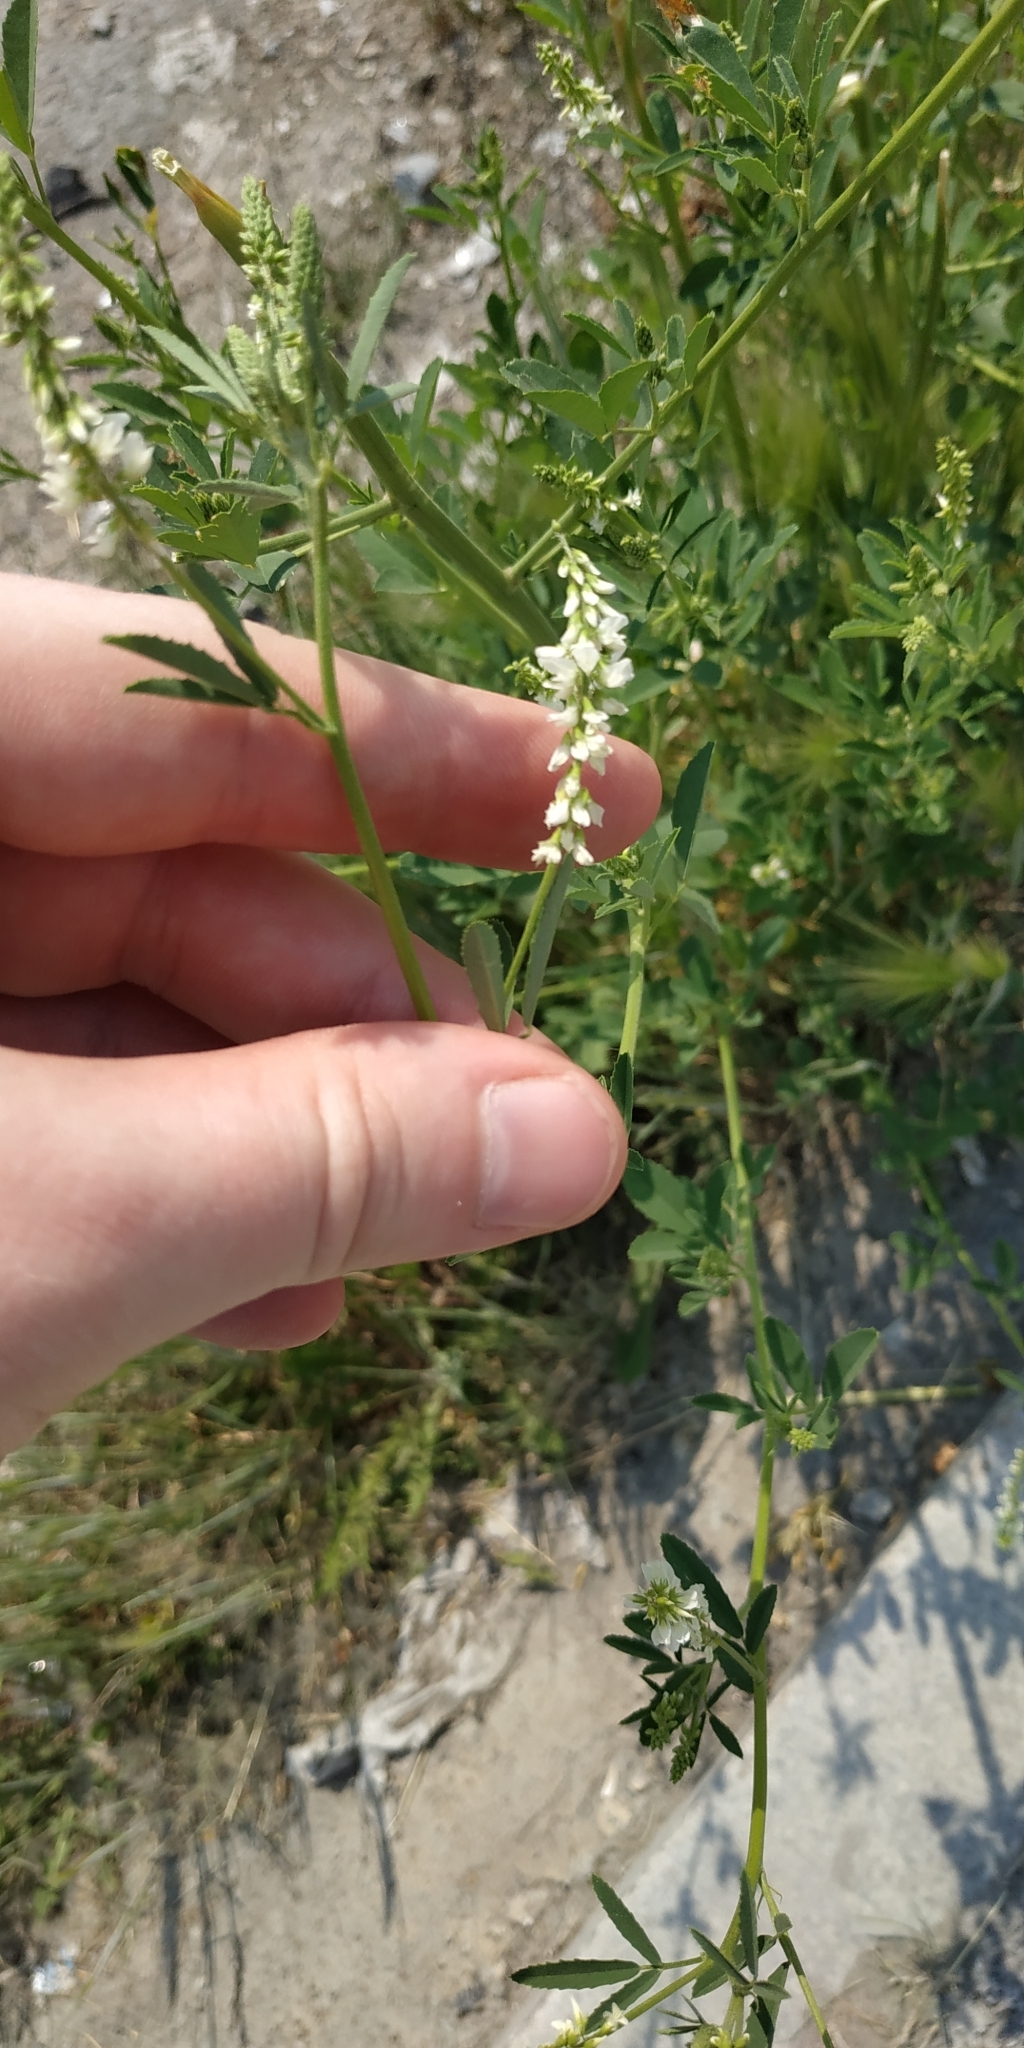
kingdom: Plantae
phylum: Tracheophyta
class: Magnoliopsida
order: Fabales
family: Fabaceae
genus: Melilotus
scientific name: Melilotus albus
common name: White melilot
